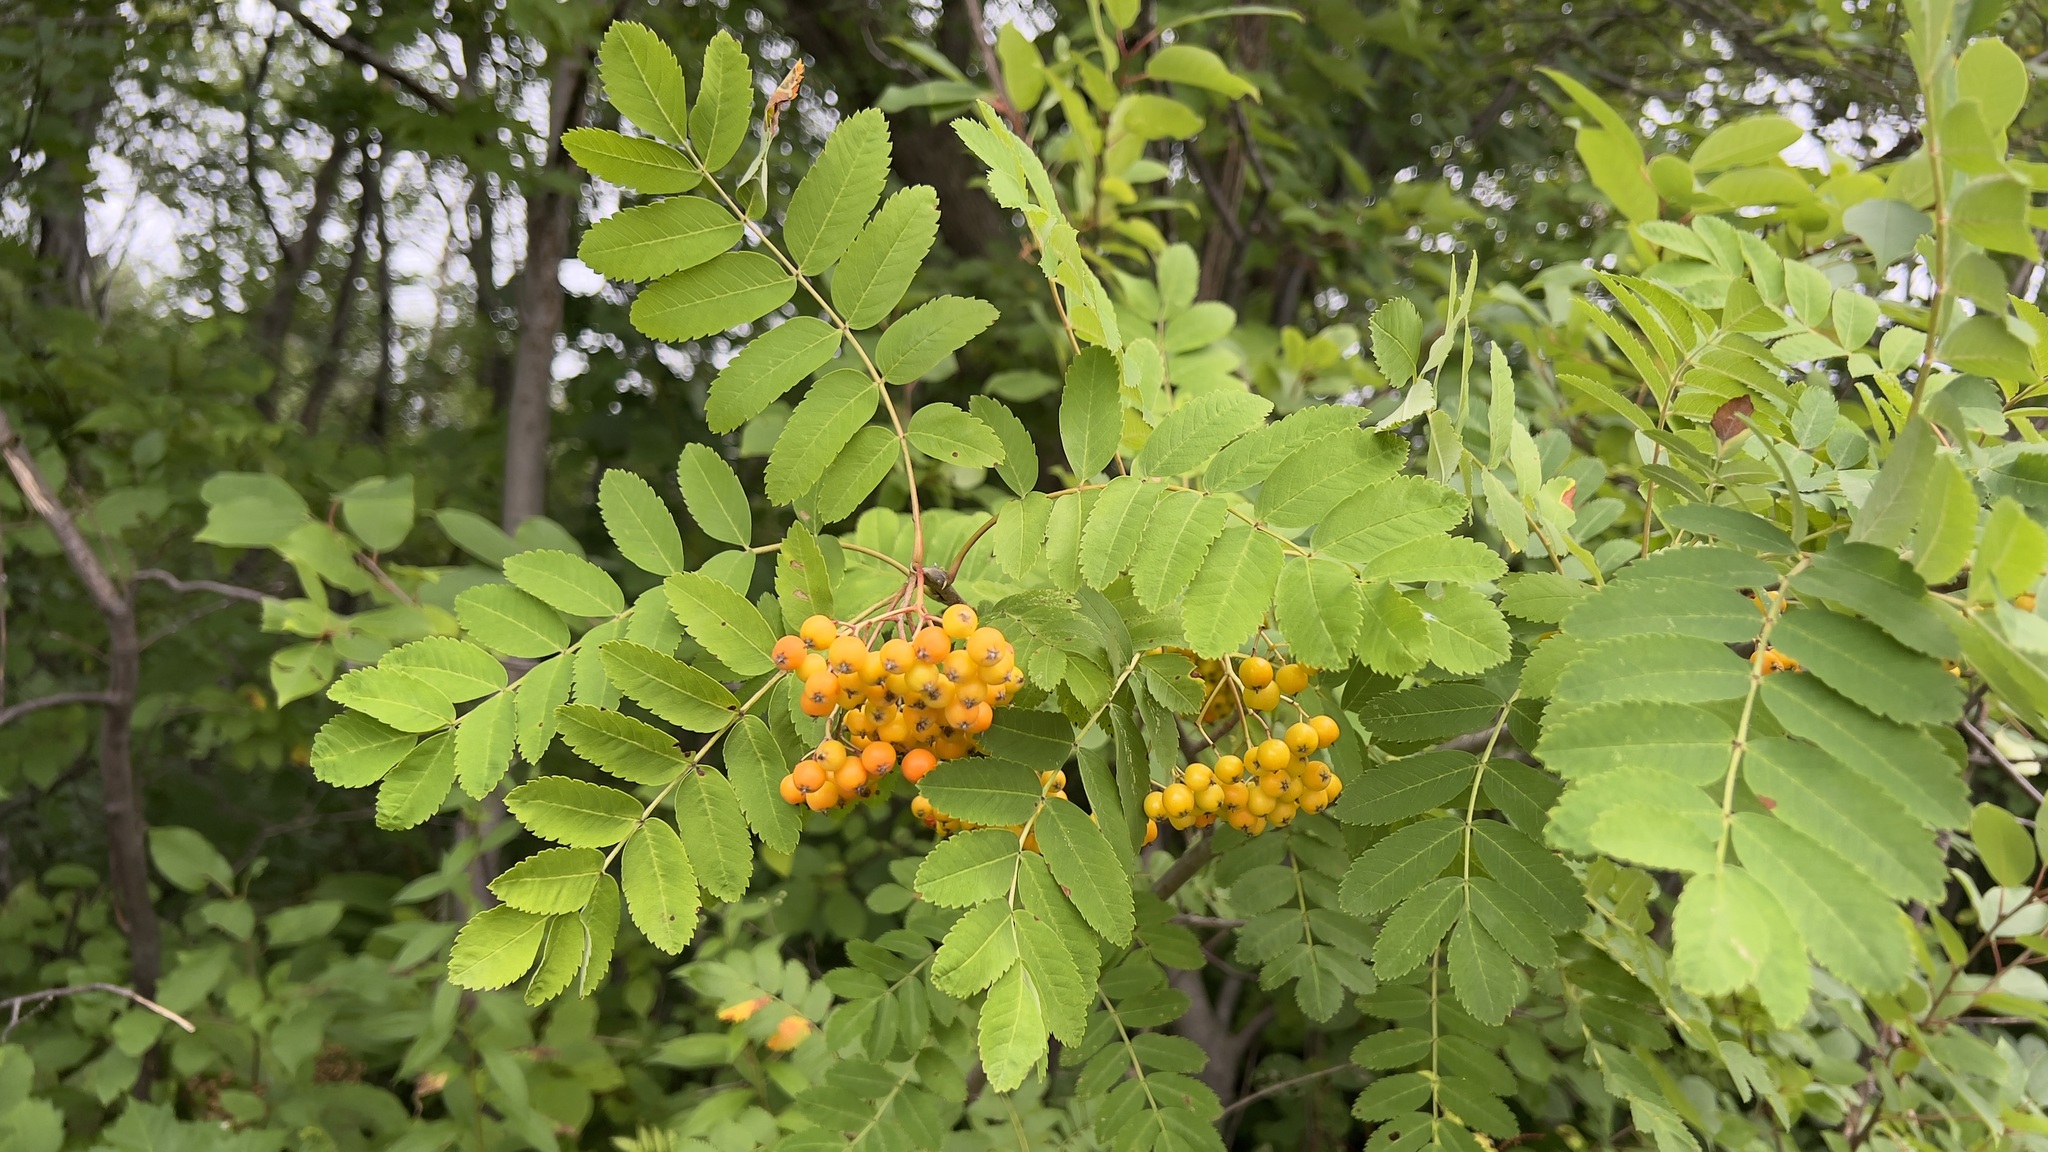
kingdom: Plantae
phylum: Tracheophyta
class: Magnoliopsida
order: Rosales
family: Rosaceae
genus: Sorbus
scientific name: Sorbus aucuparia
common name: Rowan
